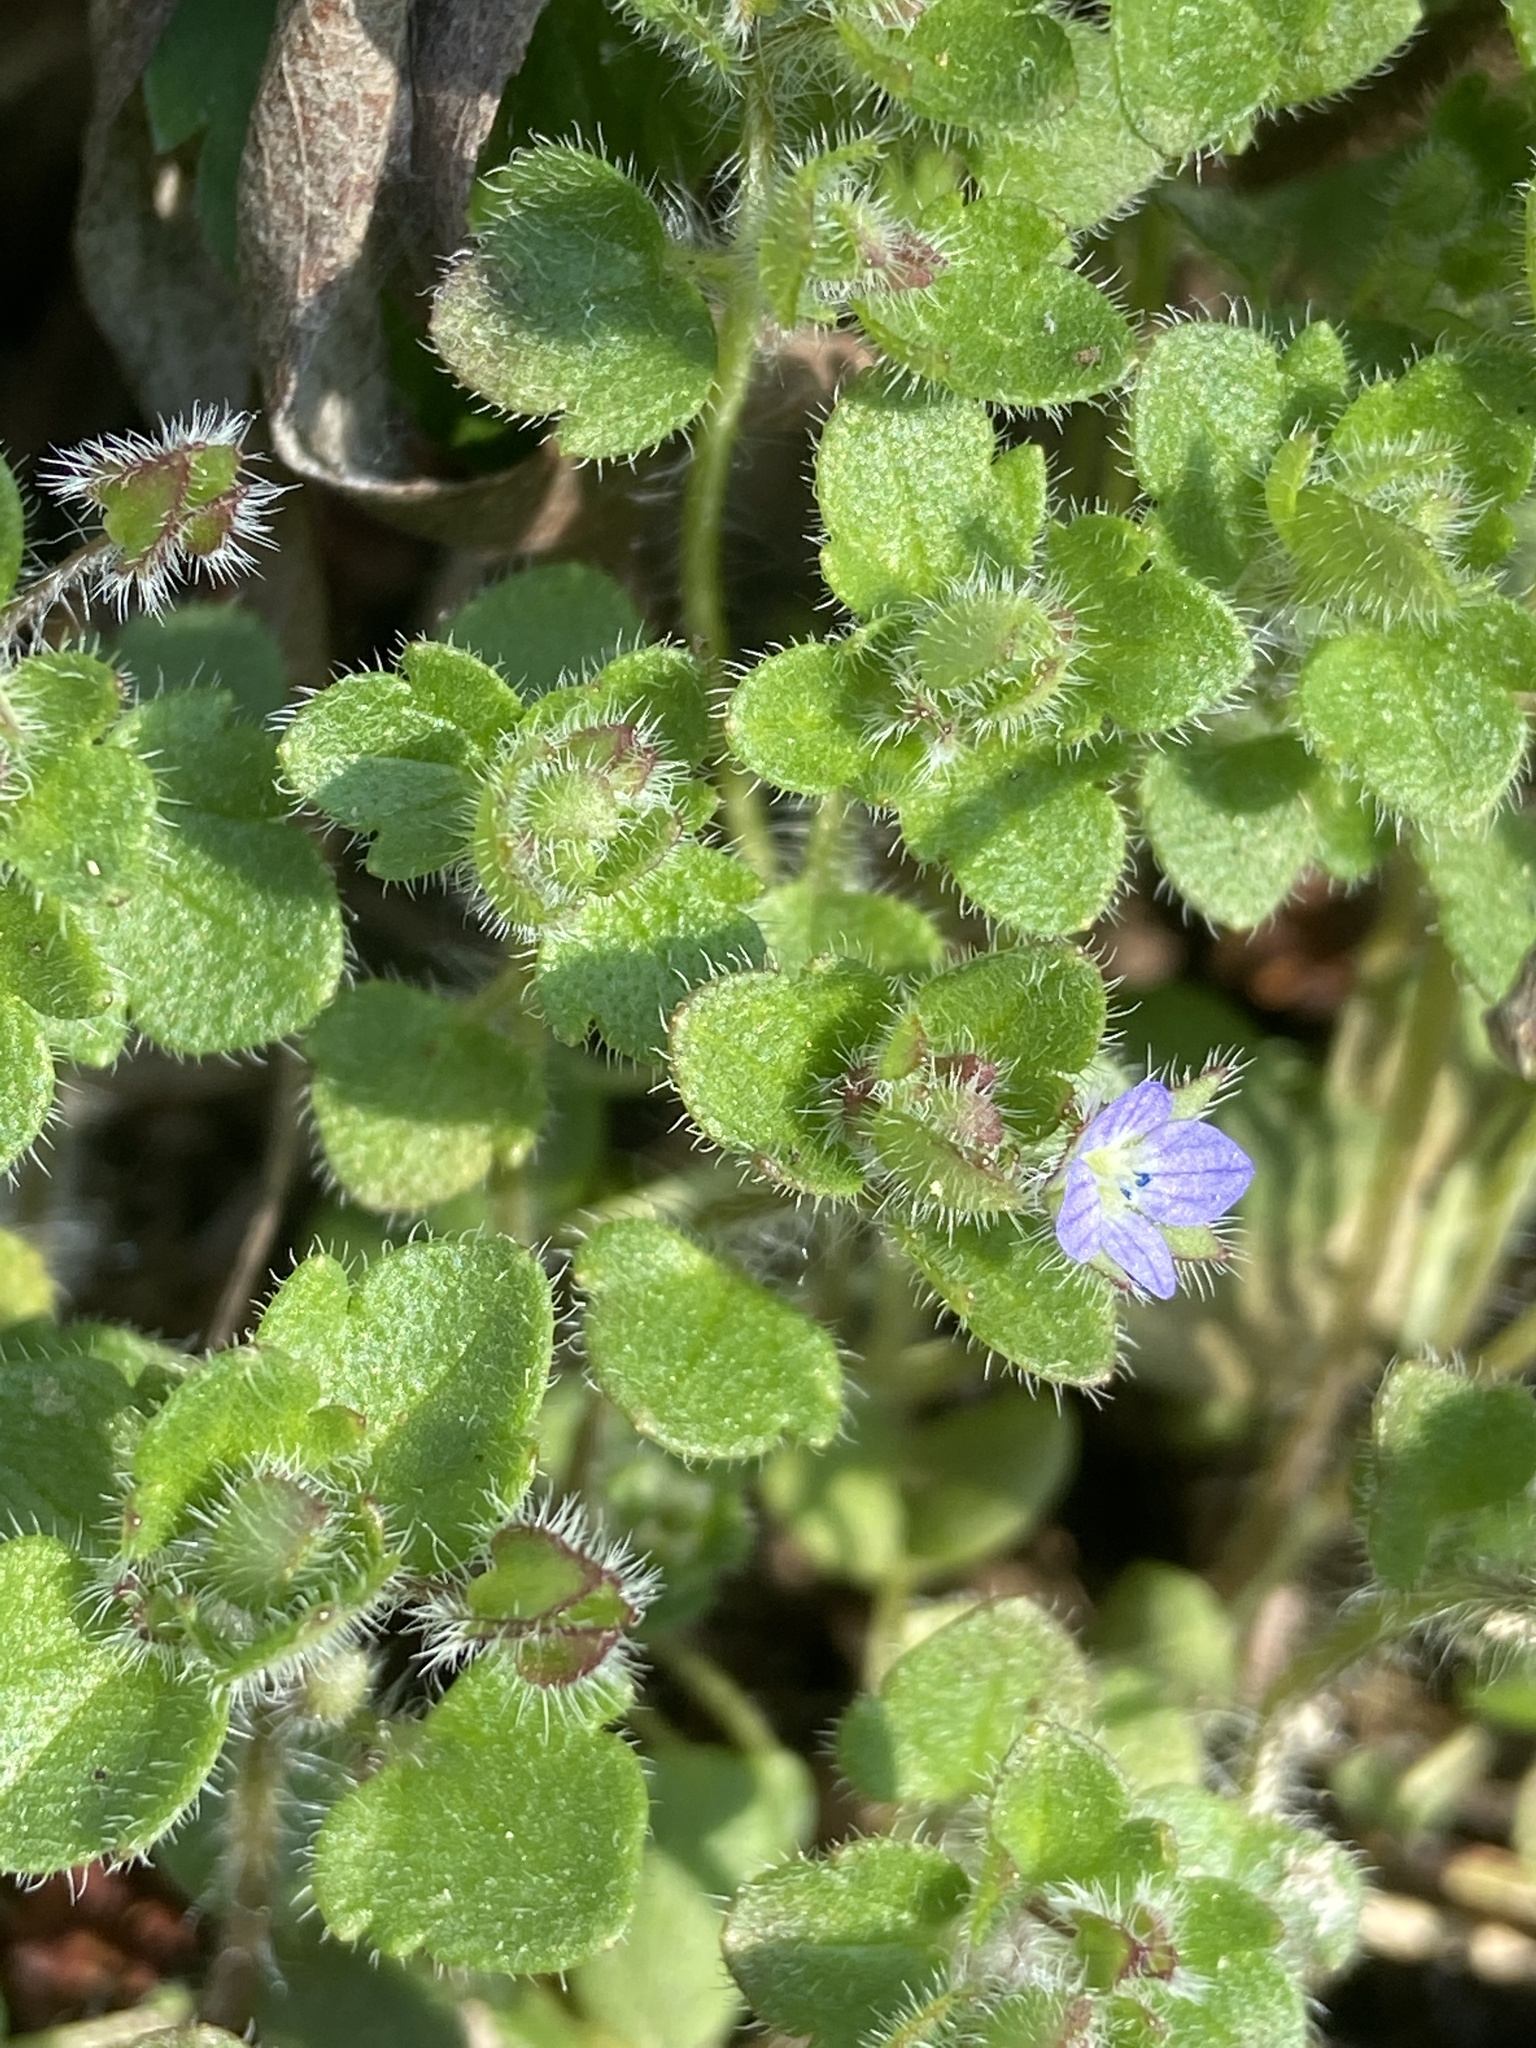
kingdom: Plantae
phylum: Tracheophyta
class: Magnoliopsida
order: Lamiales
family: Plantaginaceae
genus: Veronica
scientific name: Veronica sublobata
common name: False ivy-leaved speedwell
